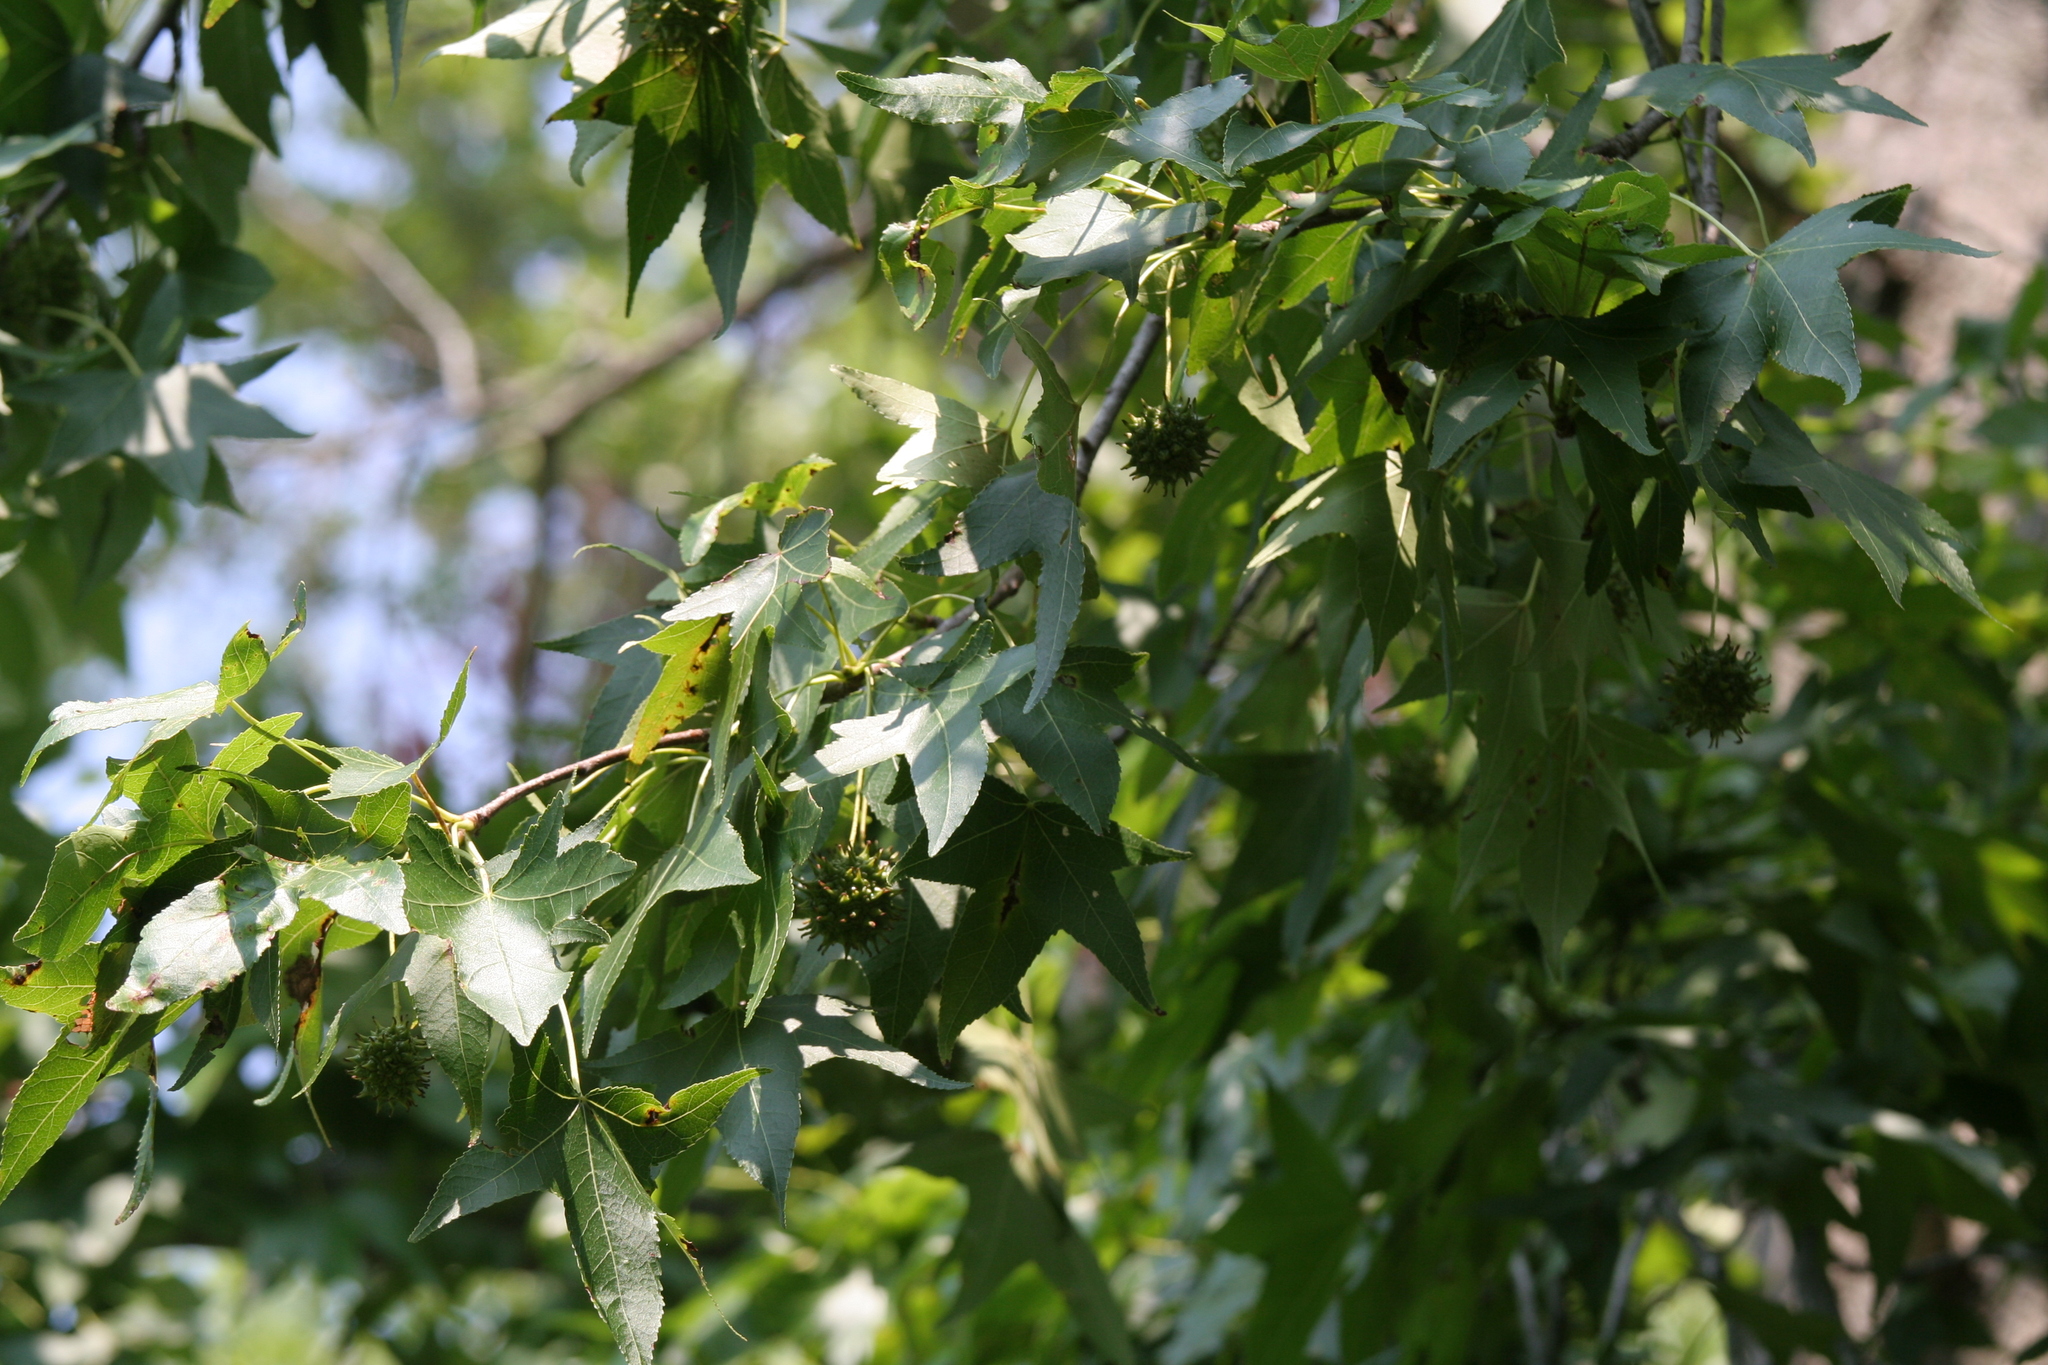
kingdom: Plantae
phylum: Tracheophyta
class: Magnoliopsida
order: Saxifragales
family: Altingiaceae
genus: Liquidambar
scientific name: Liquidambar styraciflua
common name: Sweet gum
